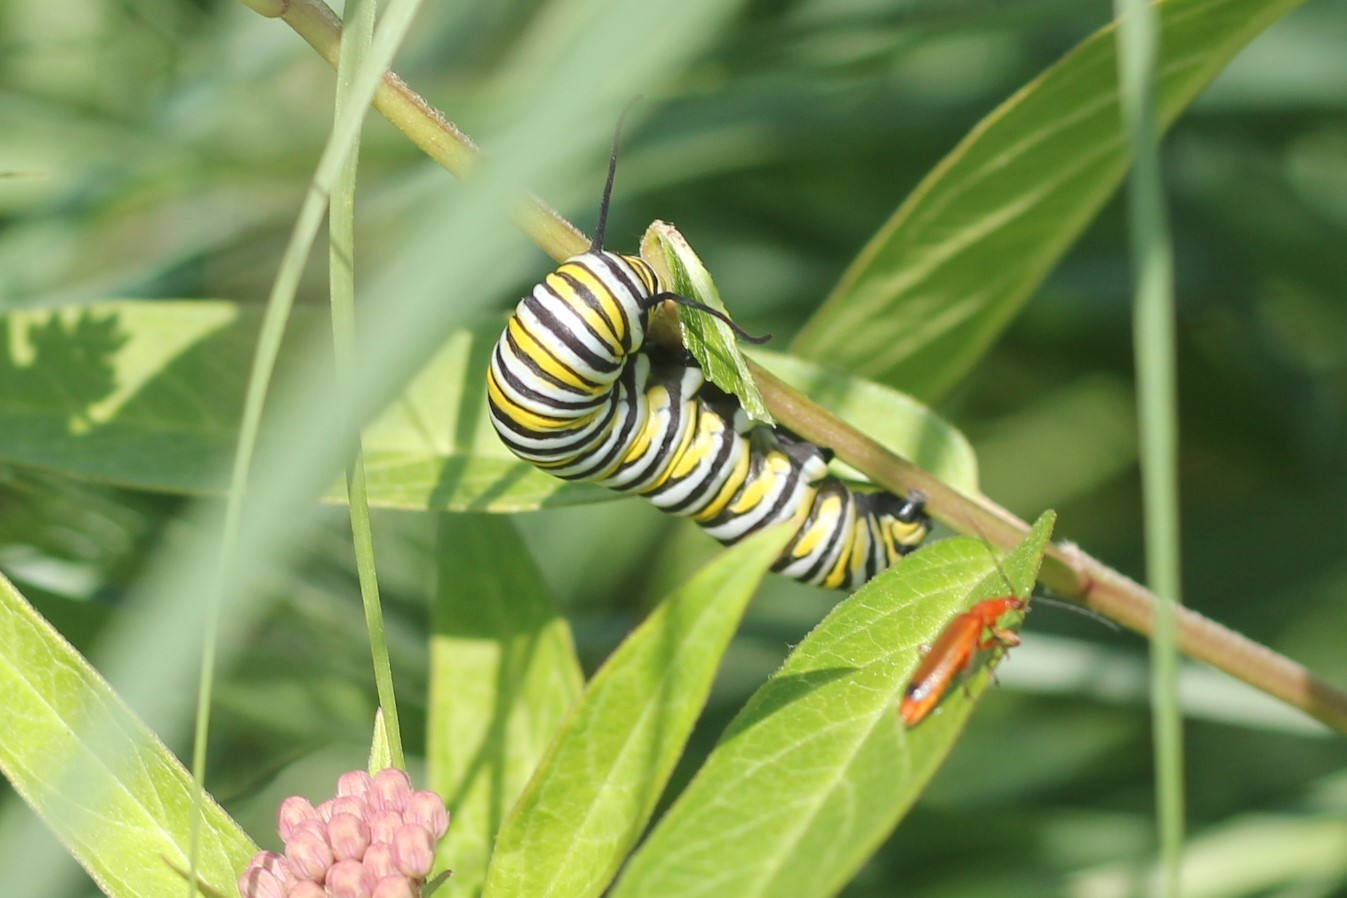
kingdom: Animalia
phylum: Arthropoda
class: Insecta
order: Lepidoptera
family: Nymphalidae
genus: Danaus
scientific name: Danaus plexippus
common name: Monarch
